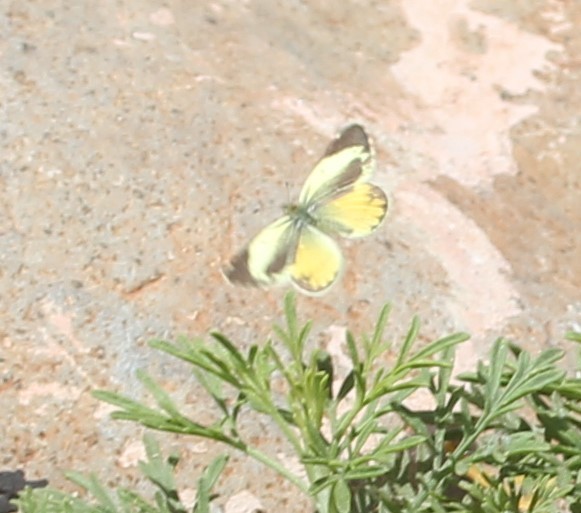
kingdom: Animalia
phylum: Arthropoda
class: Insecta
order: Lepidoptera
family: Pieridae
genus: Nathalis
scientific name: Nathalis iole
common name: Dainty sulphur
